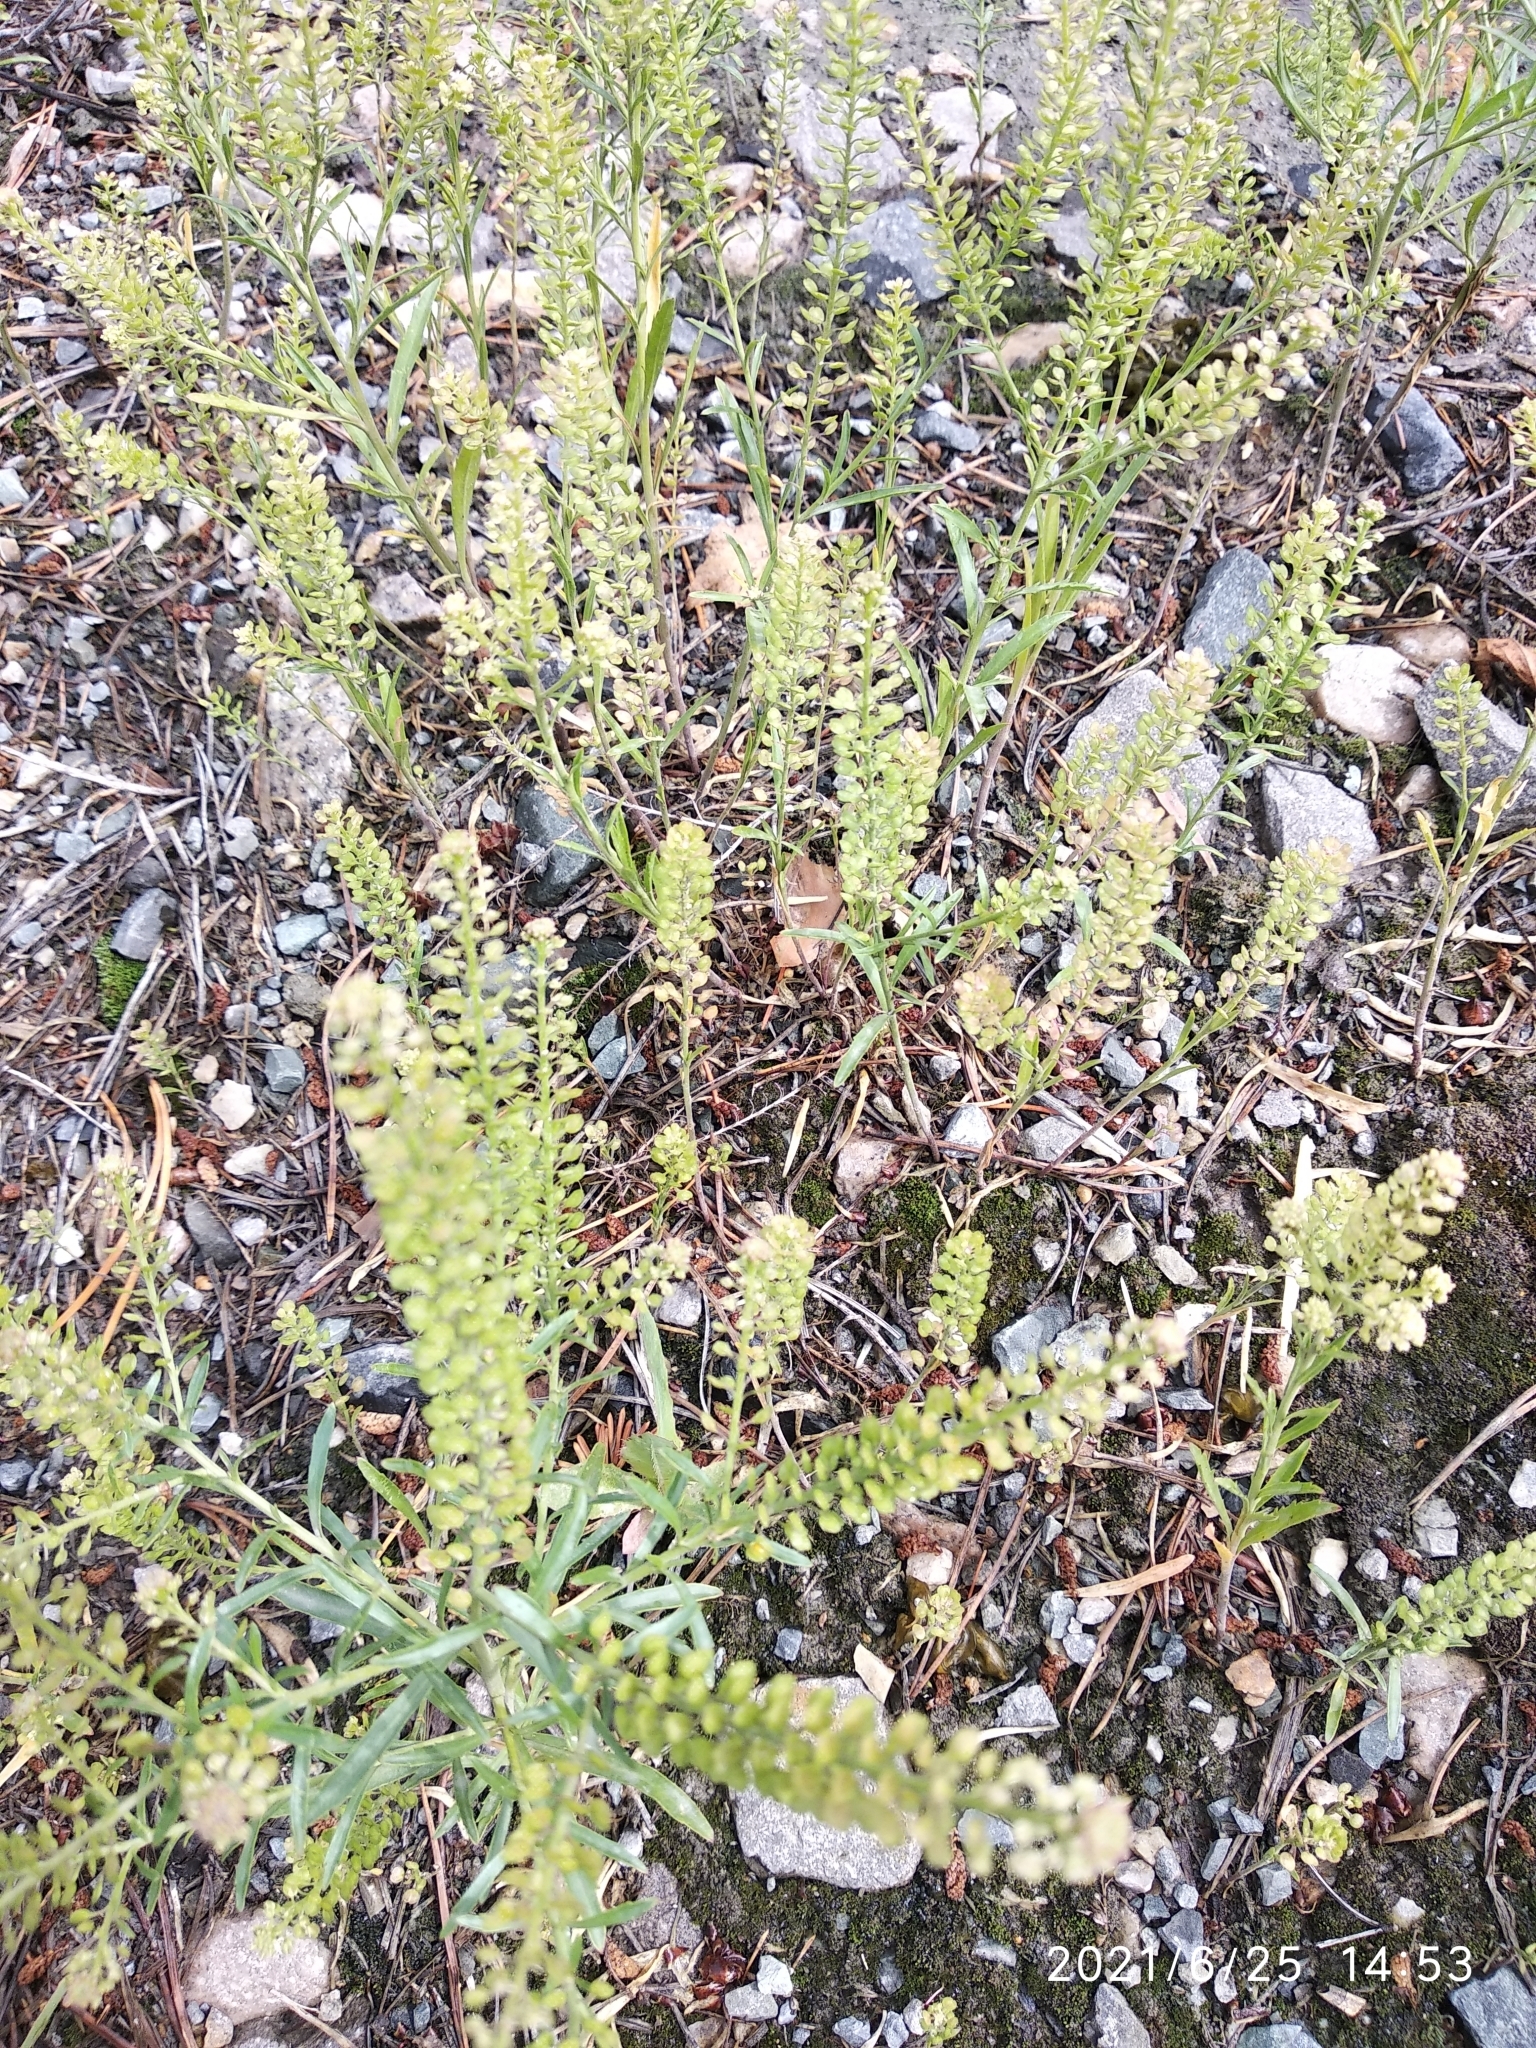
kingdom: Plantae
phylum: Tracheophyta
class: Magnoliopsida
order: Brassicales
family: Brassicaceae
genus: Lepidium
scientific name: Lepidium densiflorum
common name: Miner's pepperwort
